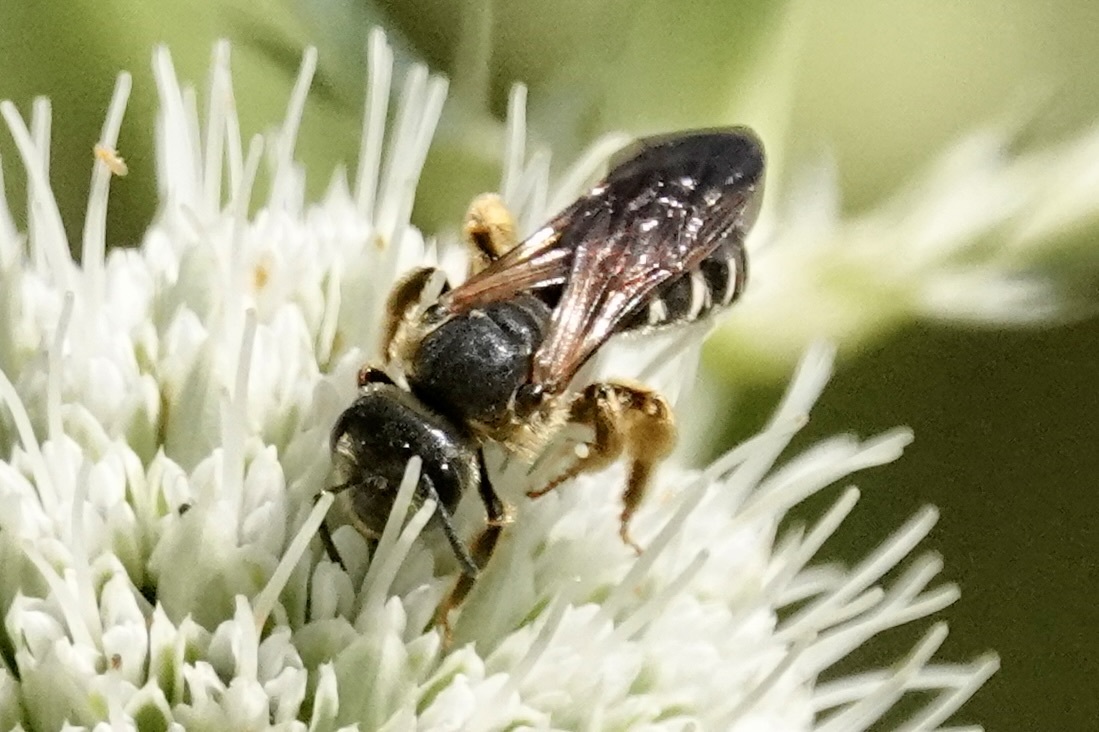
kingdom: Animalia
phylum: Arthropoda
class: Insecta
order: Hymenoptera
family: Halictidae
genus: Halictus
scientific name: Halictus parallelus
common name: Parallel-striped sweat bee
